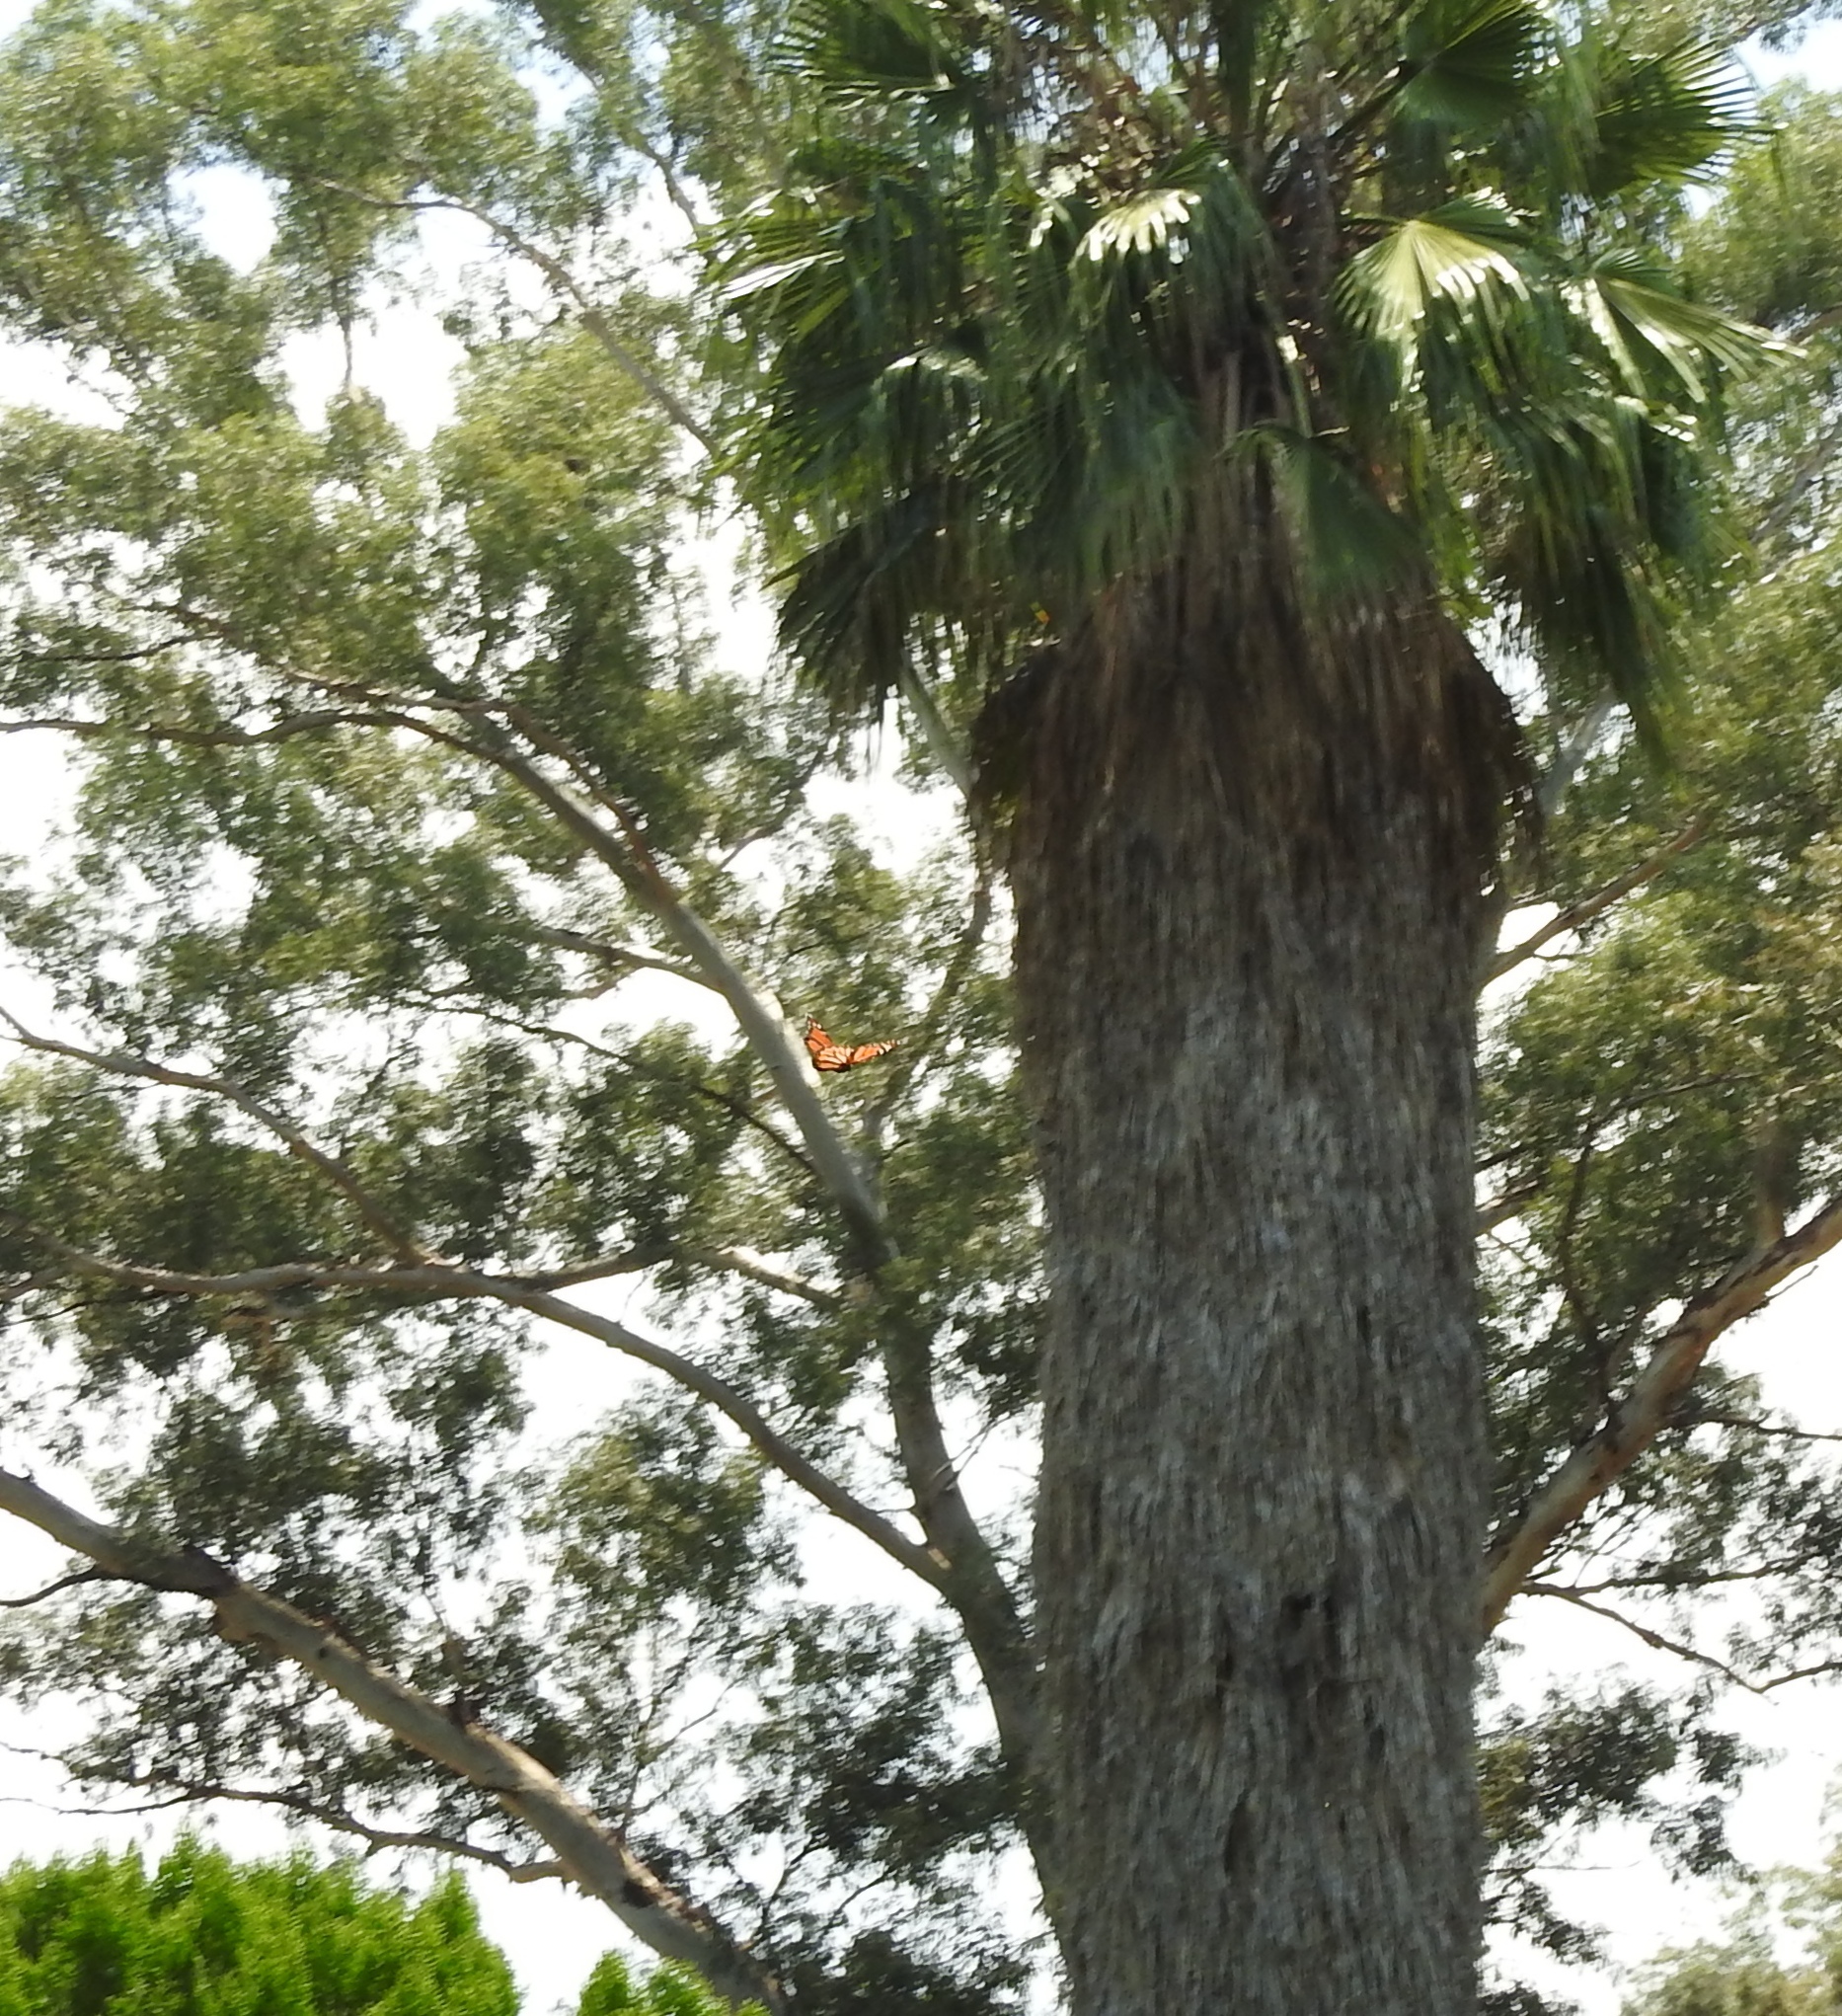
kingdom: Animalia
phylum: Arthropoda
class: Insecta
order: Lepidoptera
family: Nymphalidae
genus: Danaus
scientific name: Danaus plexippus
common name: Monarch
